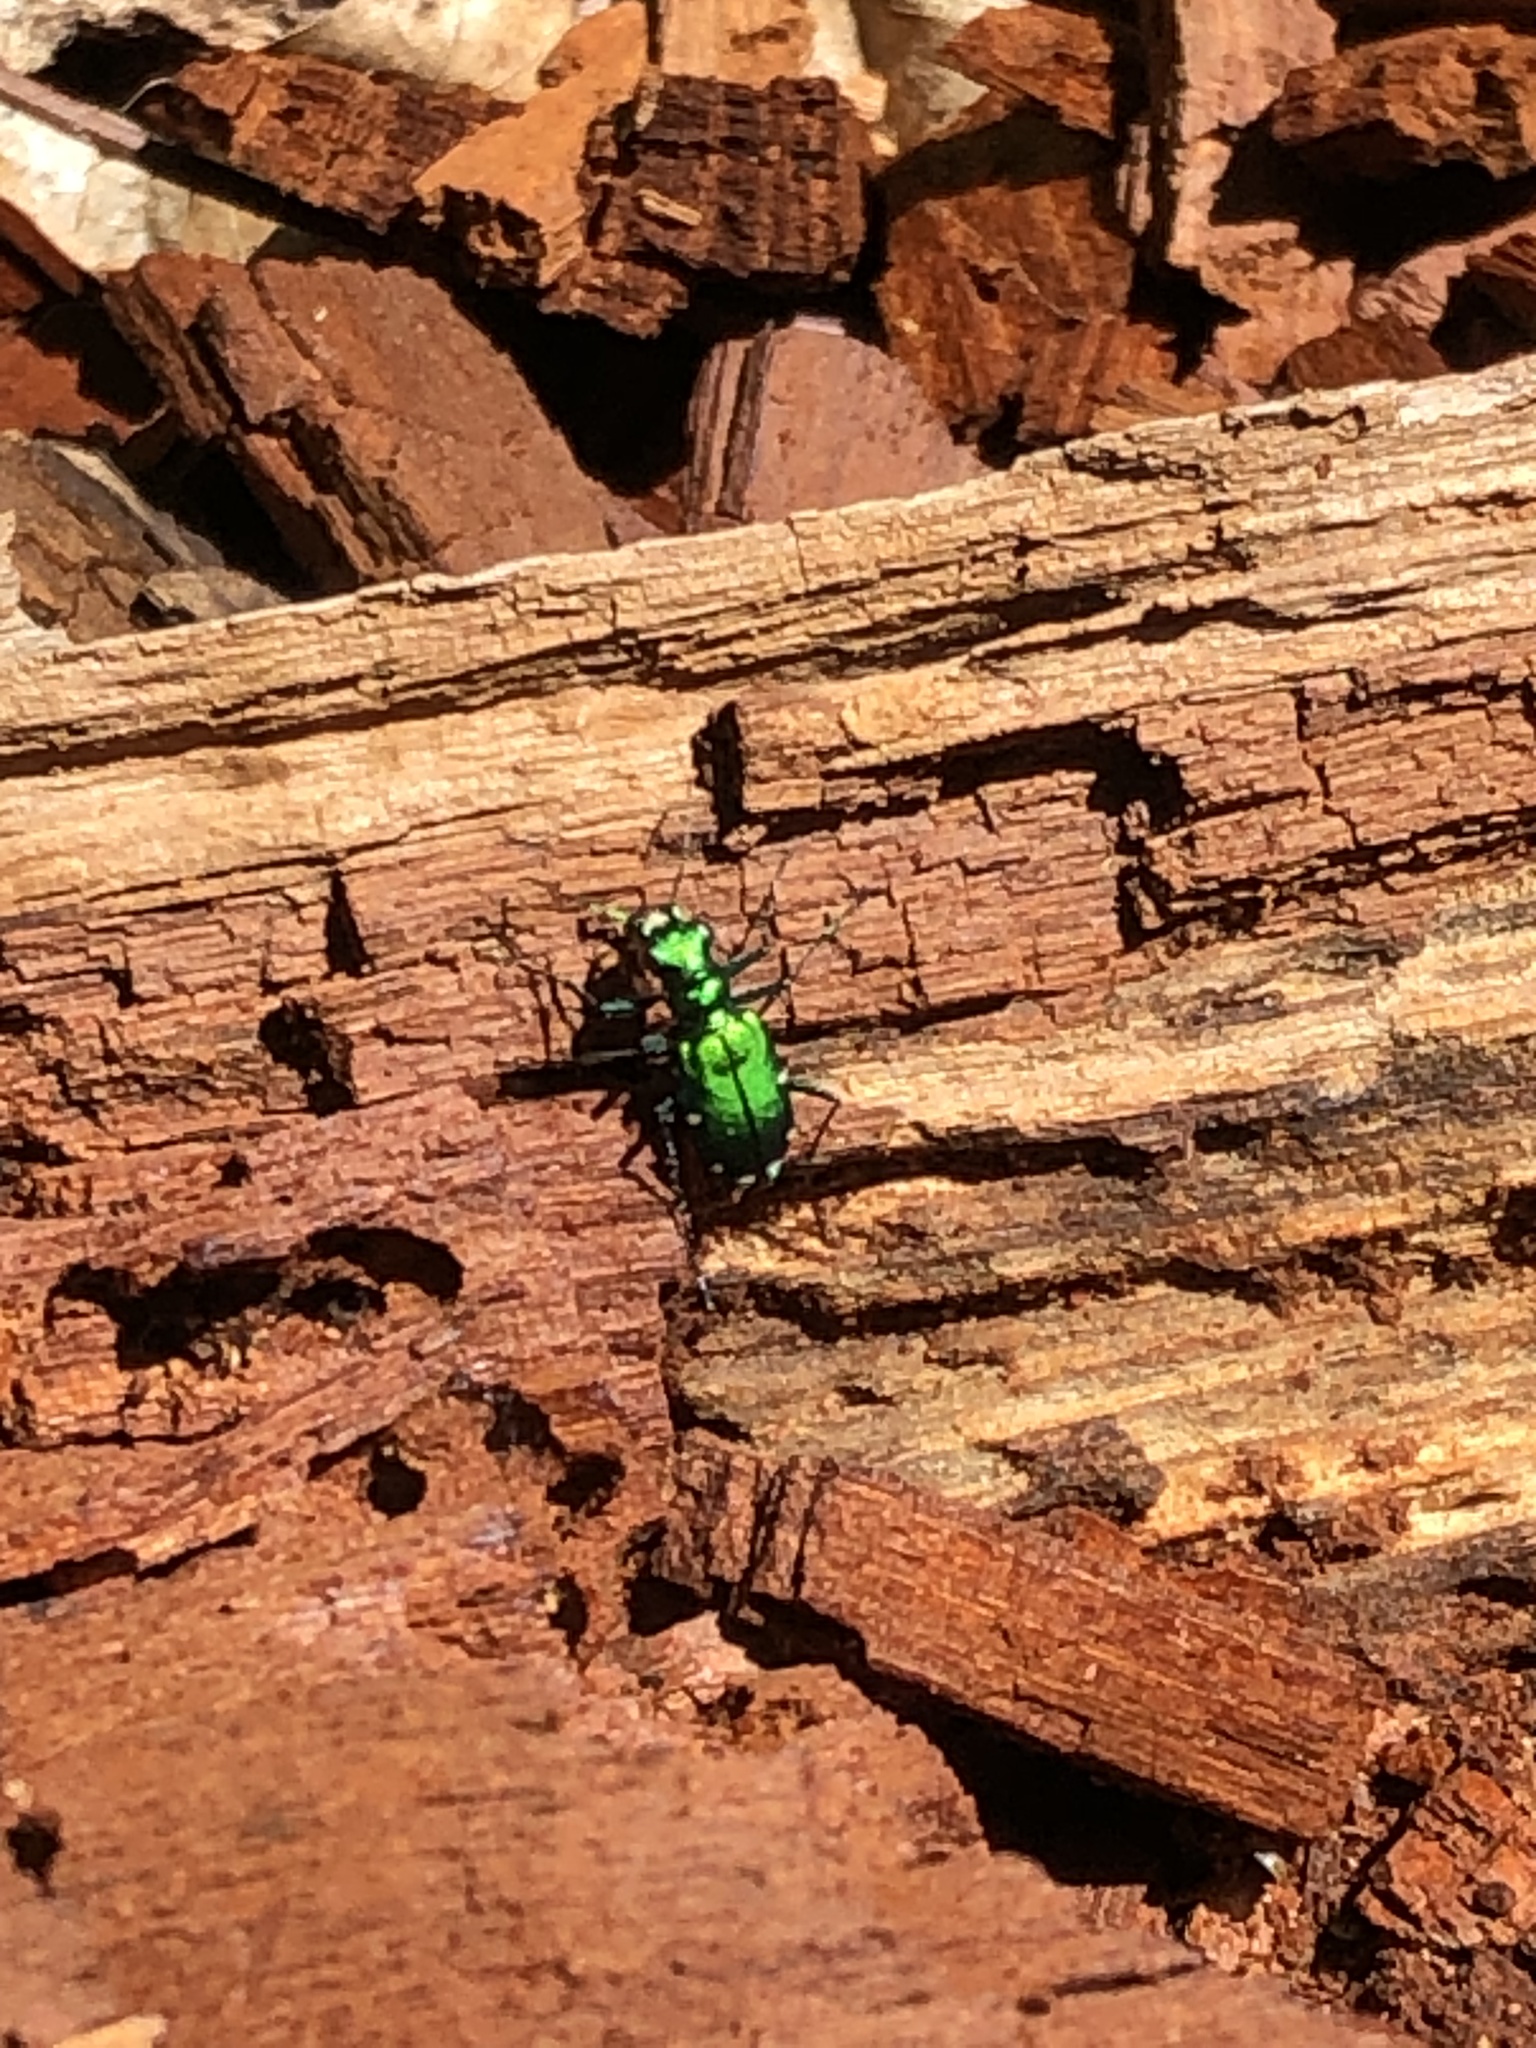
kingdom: Animalia
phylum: Arthropoda
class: Insecta
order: Coleoptera
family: Carabidae
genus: Cicindela
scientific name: Cicindela sexguttata
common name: Six-spotted tiger beetle
